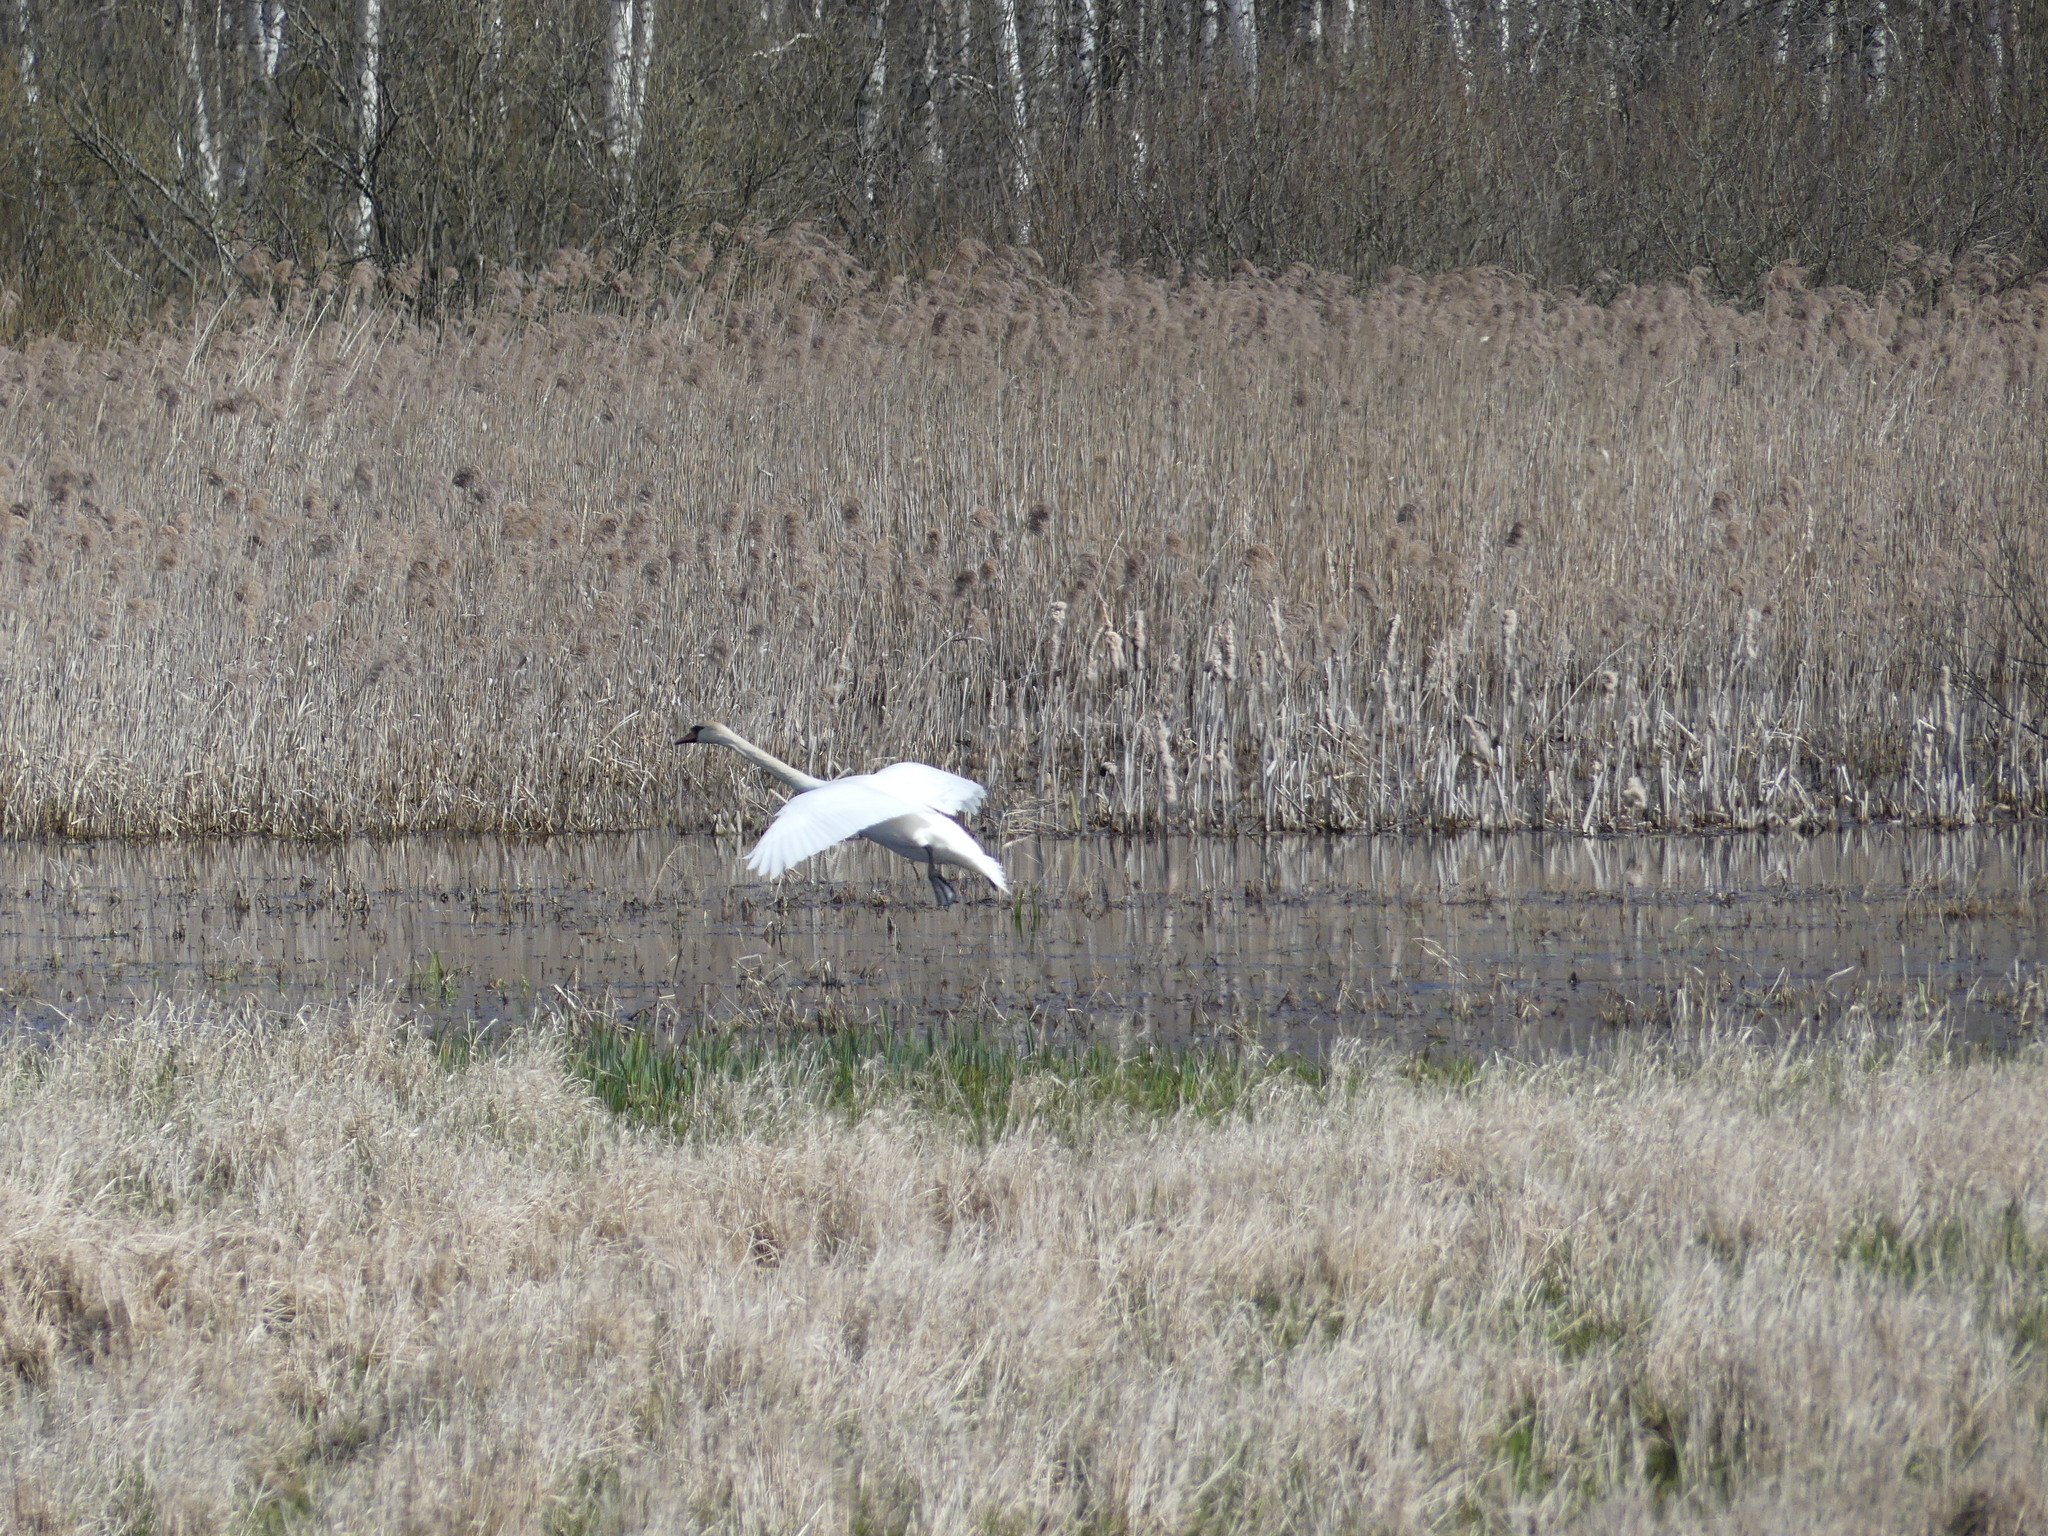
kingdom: Animalia
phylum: Chordata
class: Aves
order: Anseriformes
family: Anatidae
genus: Cygnus
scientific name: Cygnus olor
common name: Mute swan
